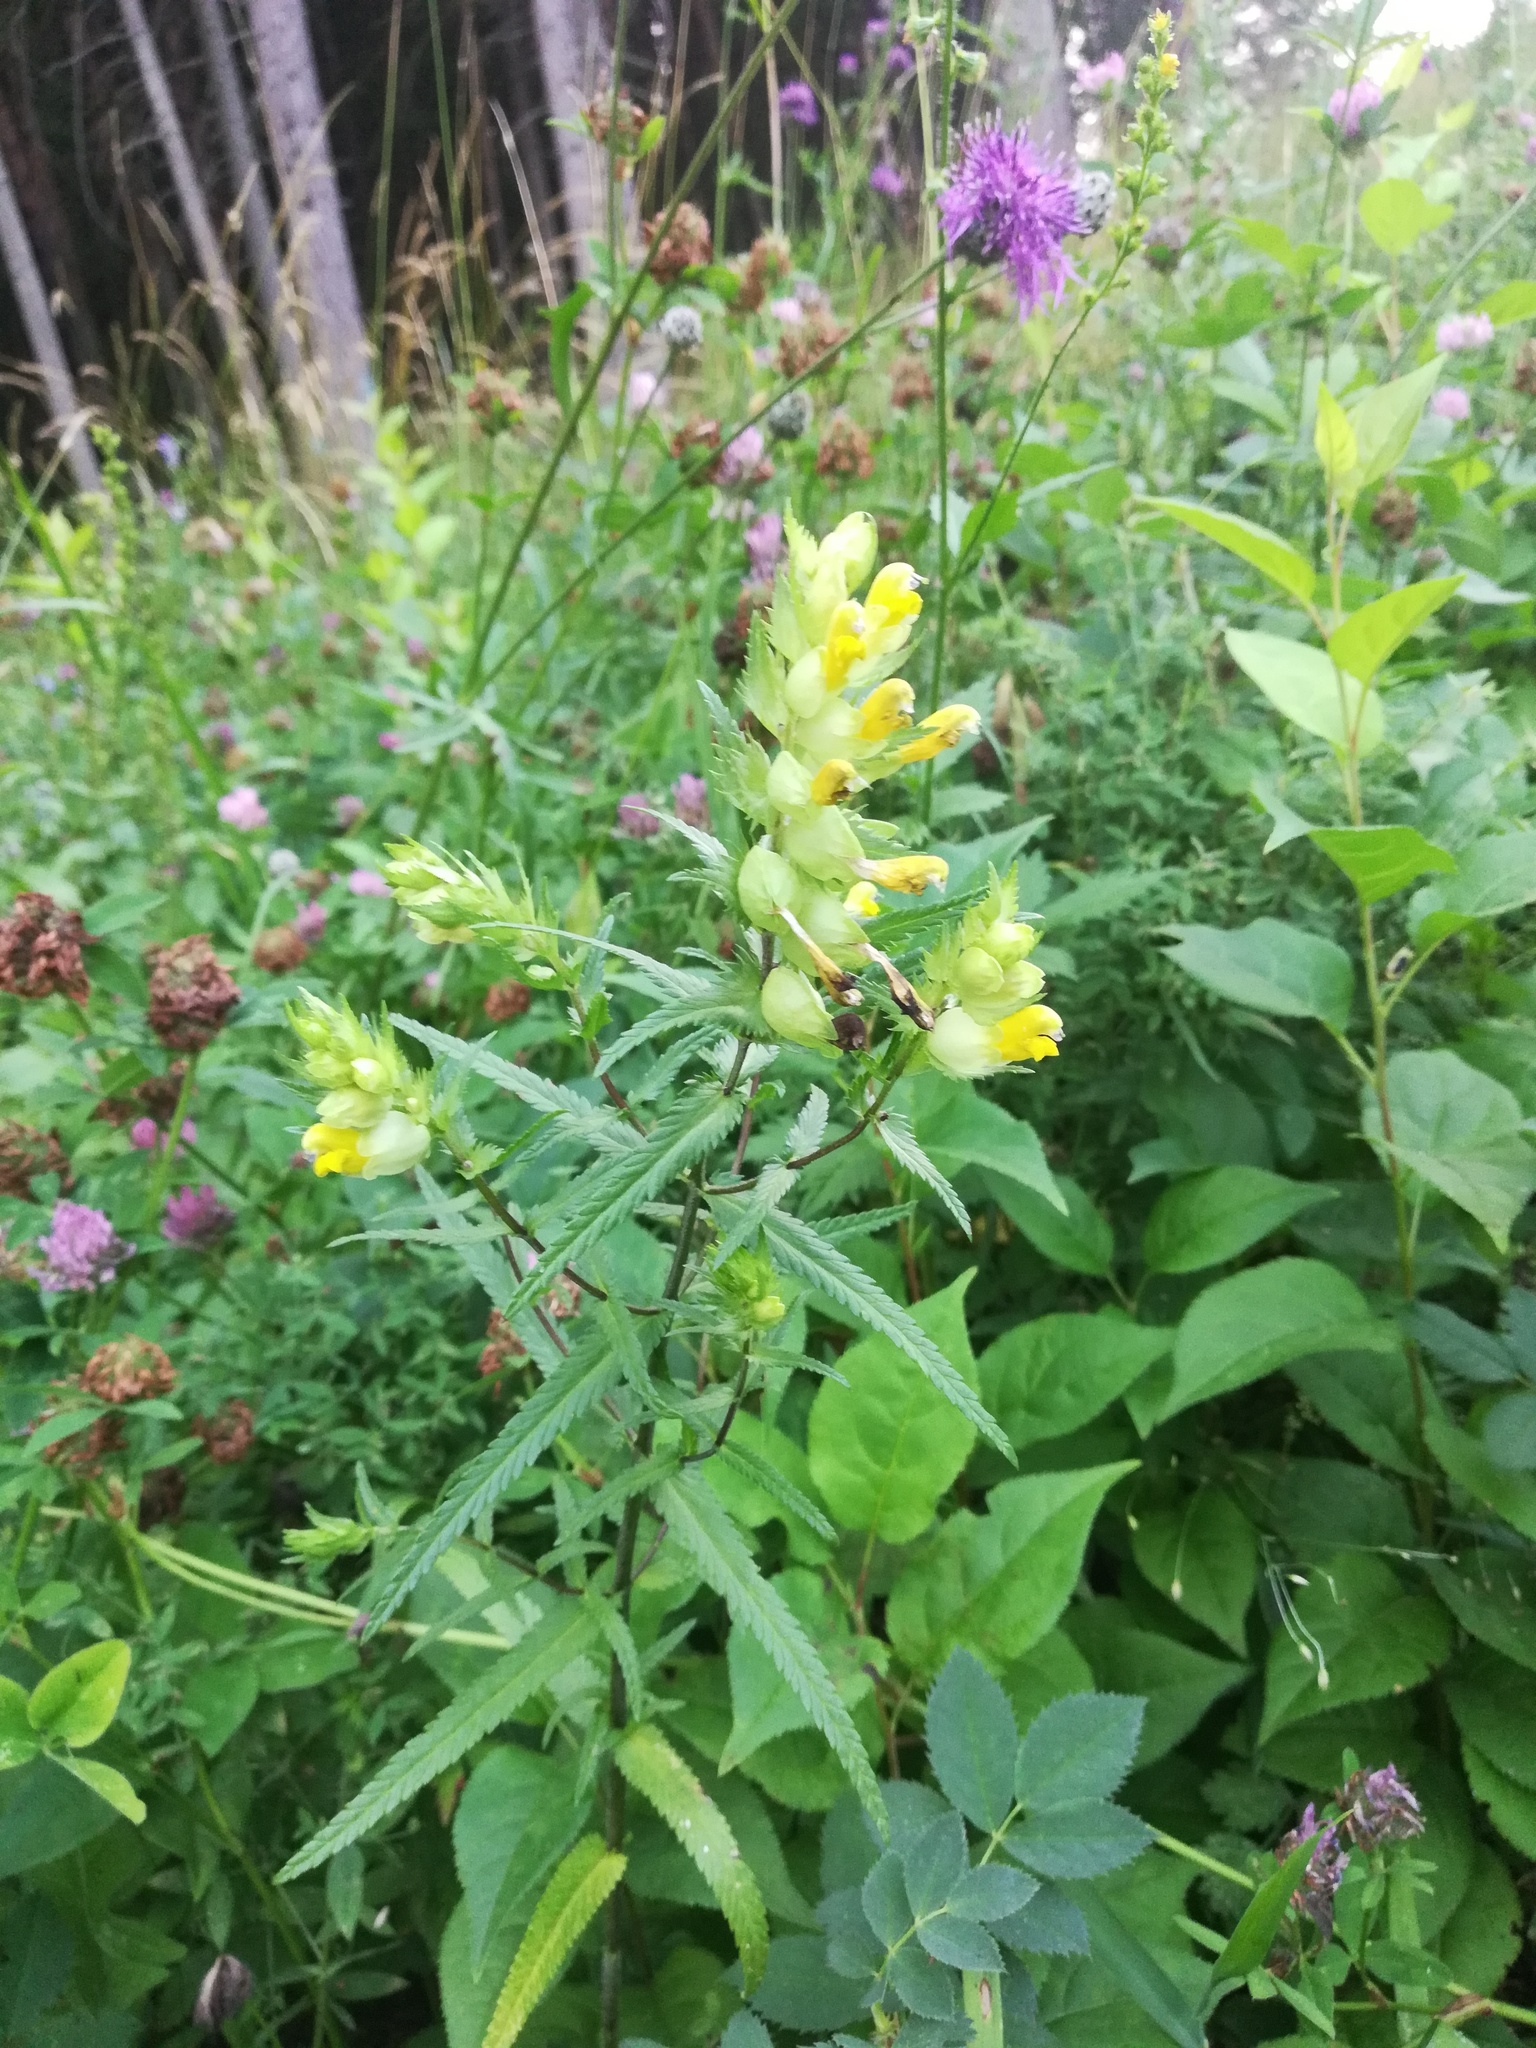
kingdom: Plantae
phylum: Tracheophyta
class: Magnoliopsida
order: Lamiales
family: Orobanchaceae
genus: Rhinanthus
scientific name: Rhinanthus serotinus
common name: Late-flowering yellow rattle
